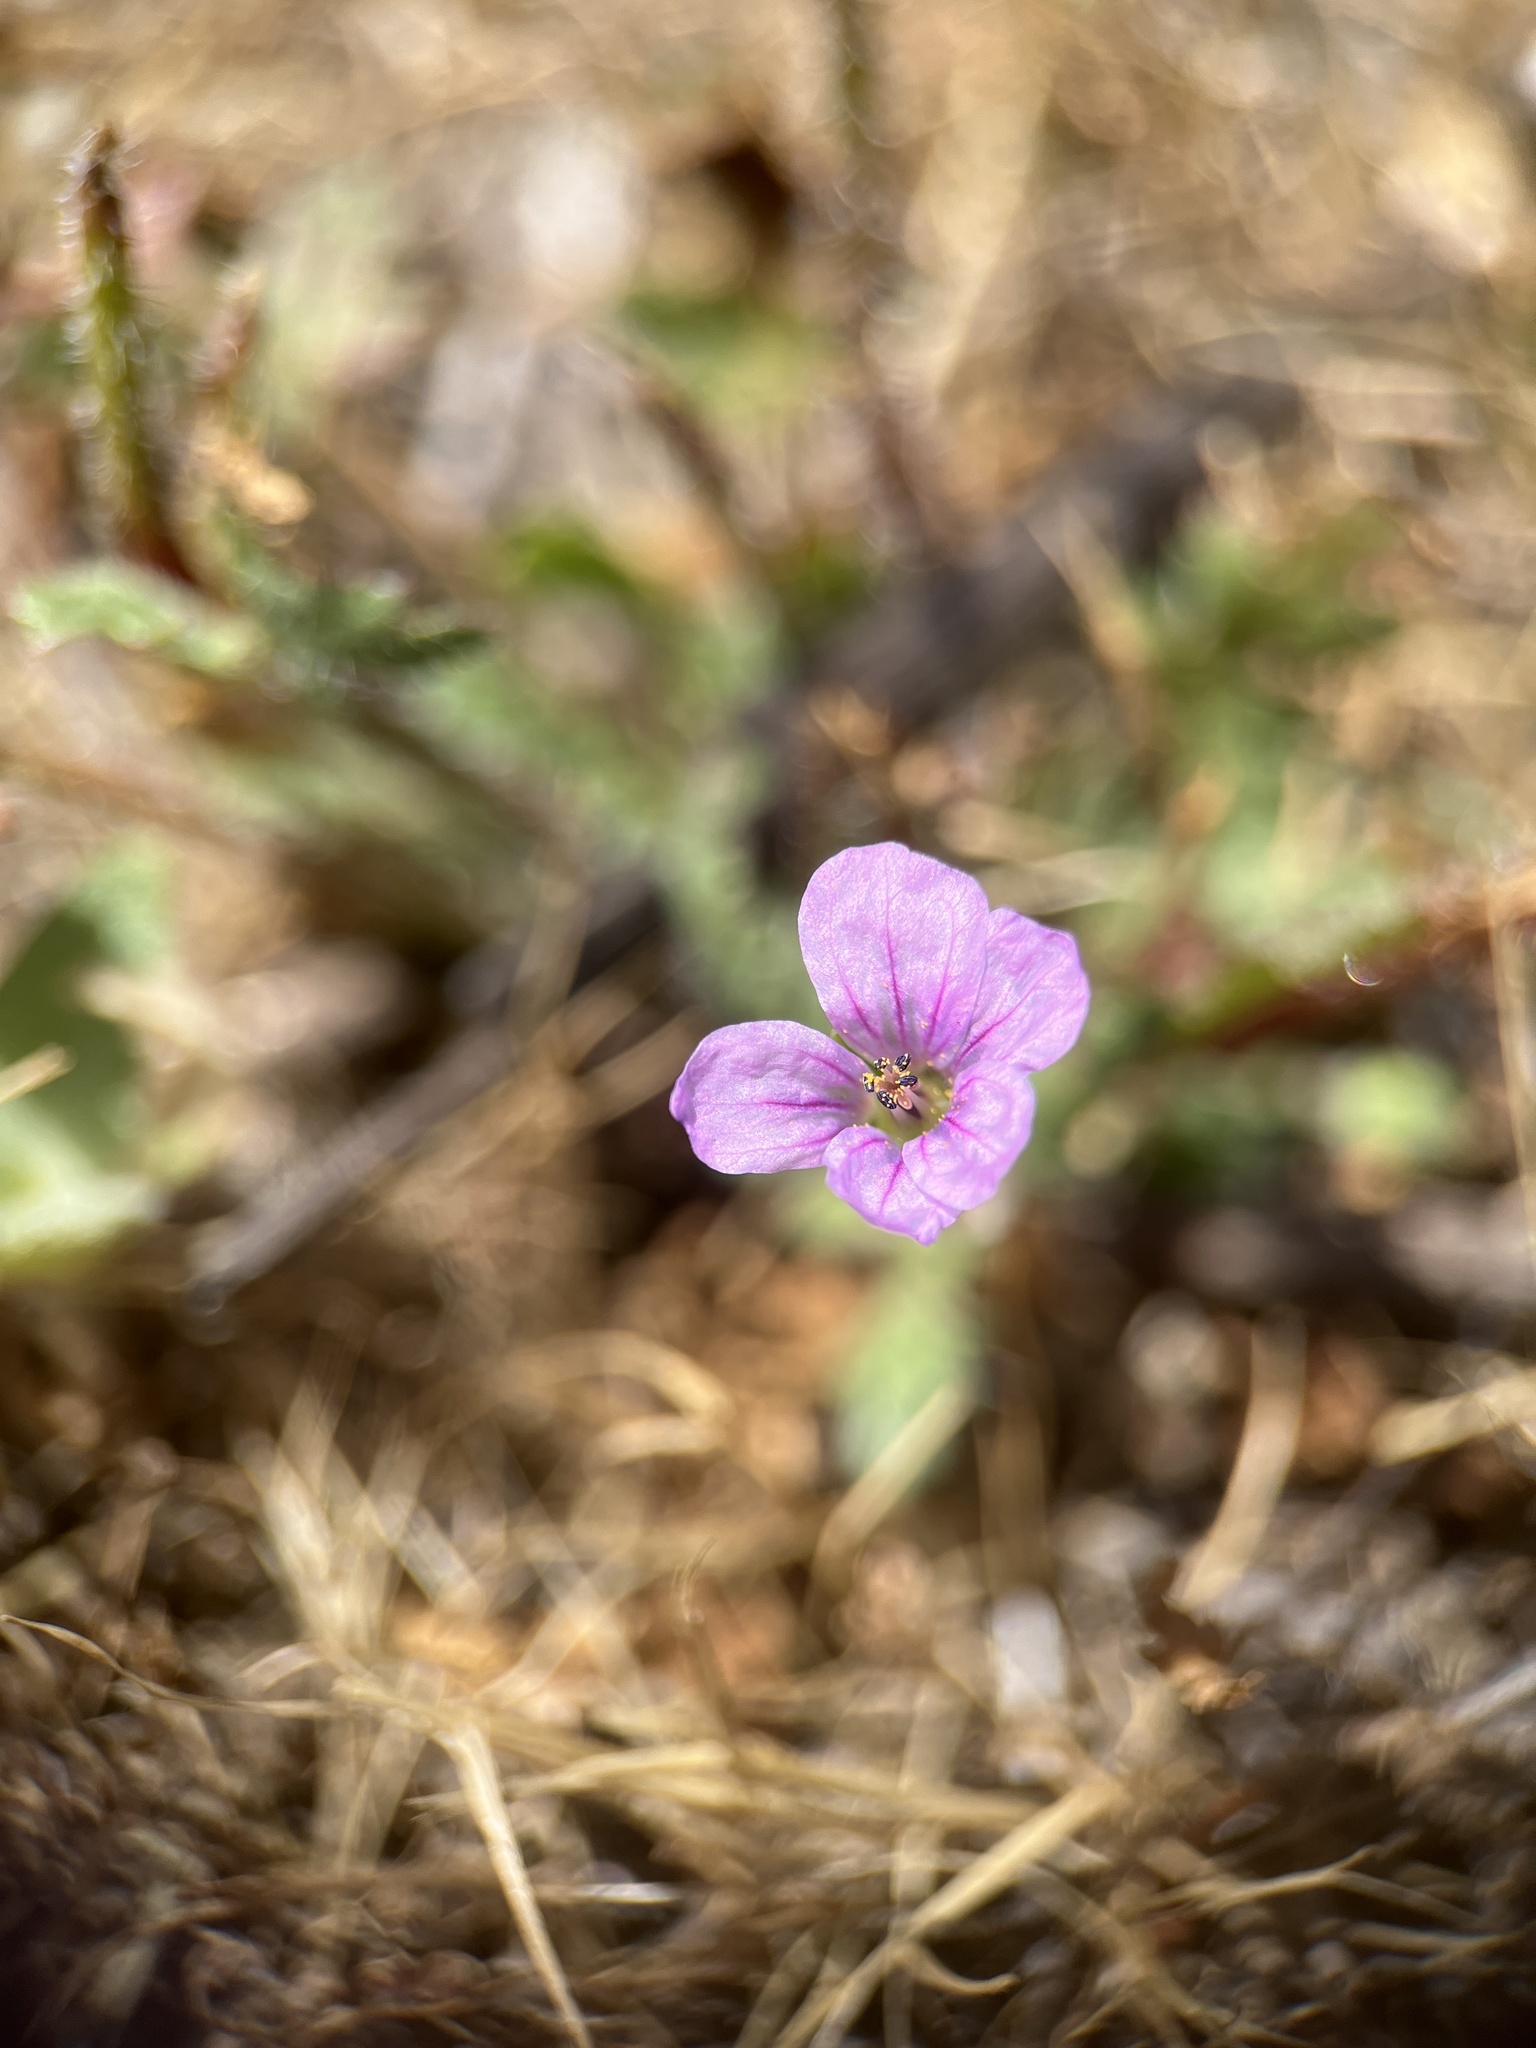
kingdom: Plantae
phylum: Tracheophyta
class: Magnoliopsida
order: Geraniales
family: Geraniaceae
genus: Erodium
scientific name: Erodium botrys
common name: Mediterranean stork's-bill
